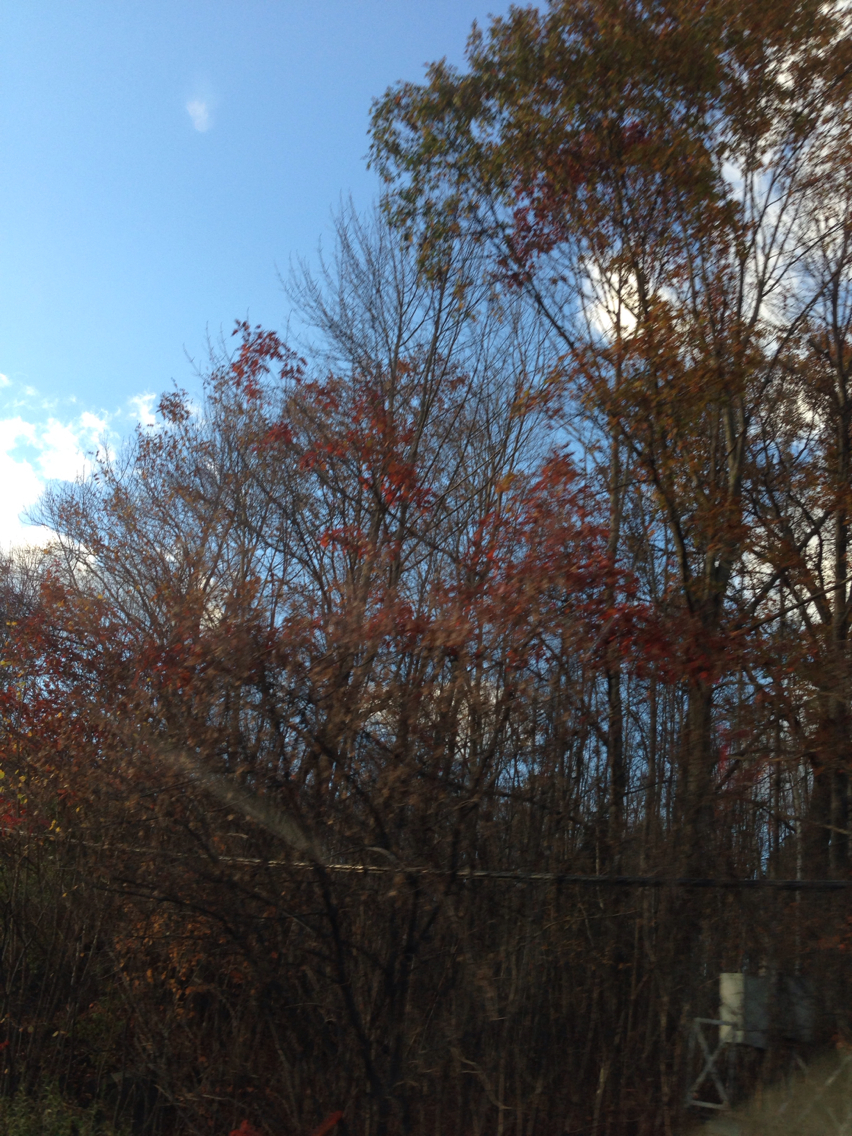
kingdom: Plantae
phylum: Tracheophyta
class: Magnoliopsida
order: Fagales
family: Fagaceae
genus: Quercus
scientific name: Quercus rubra
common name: Red oak
